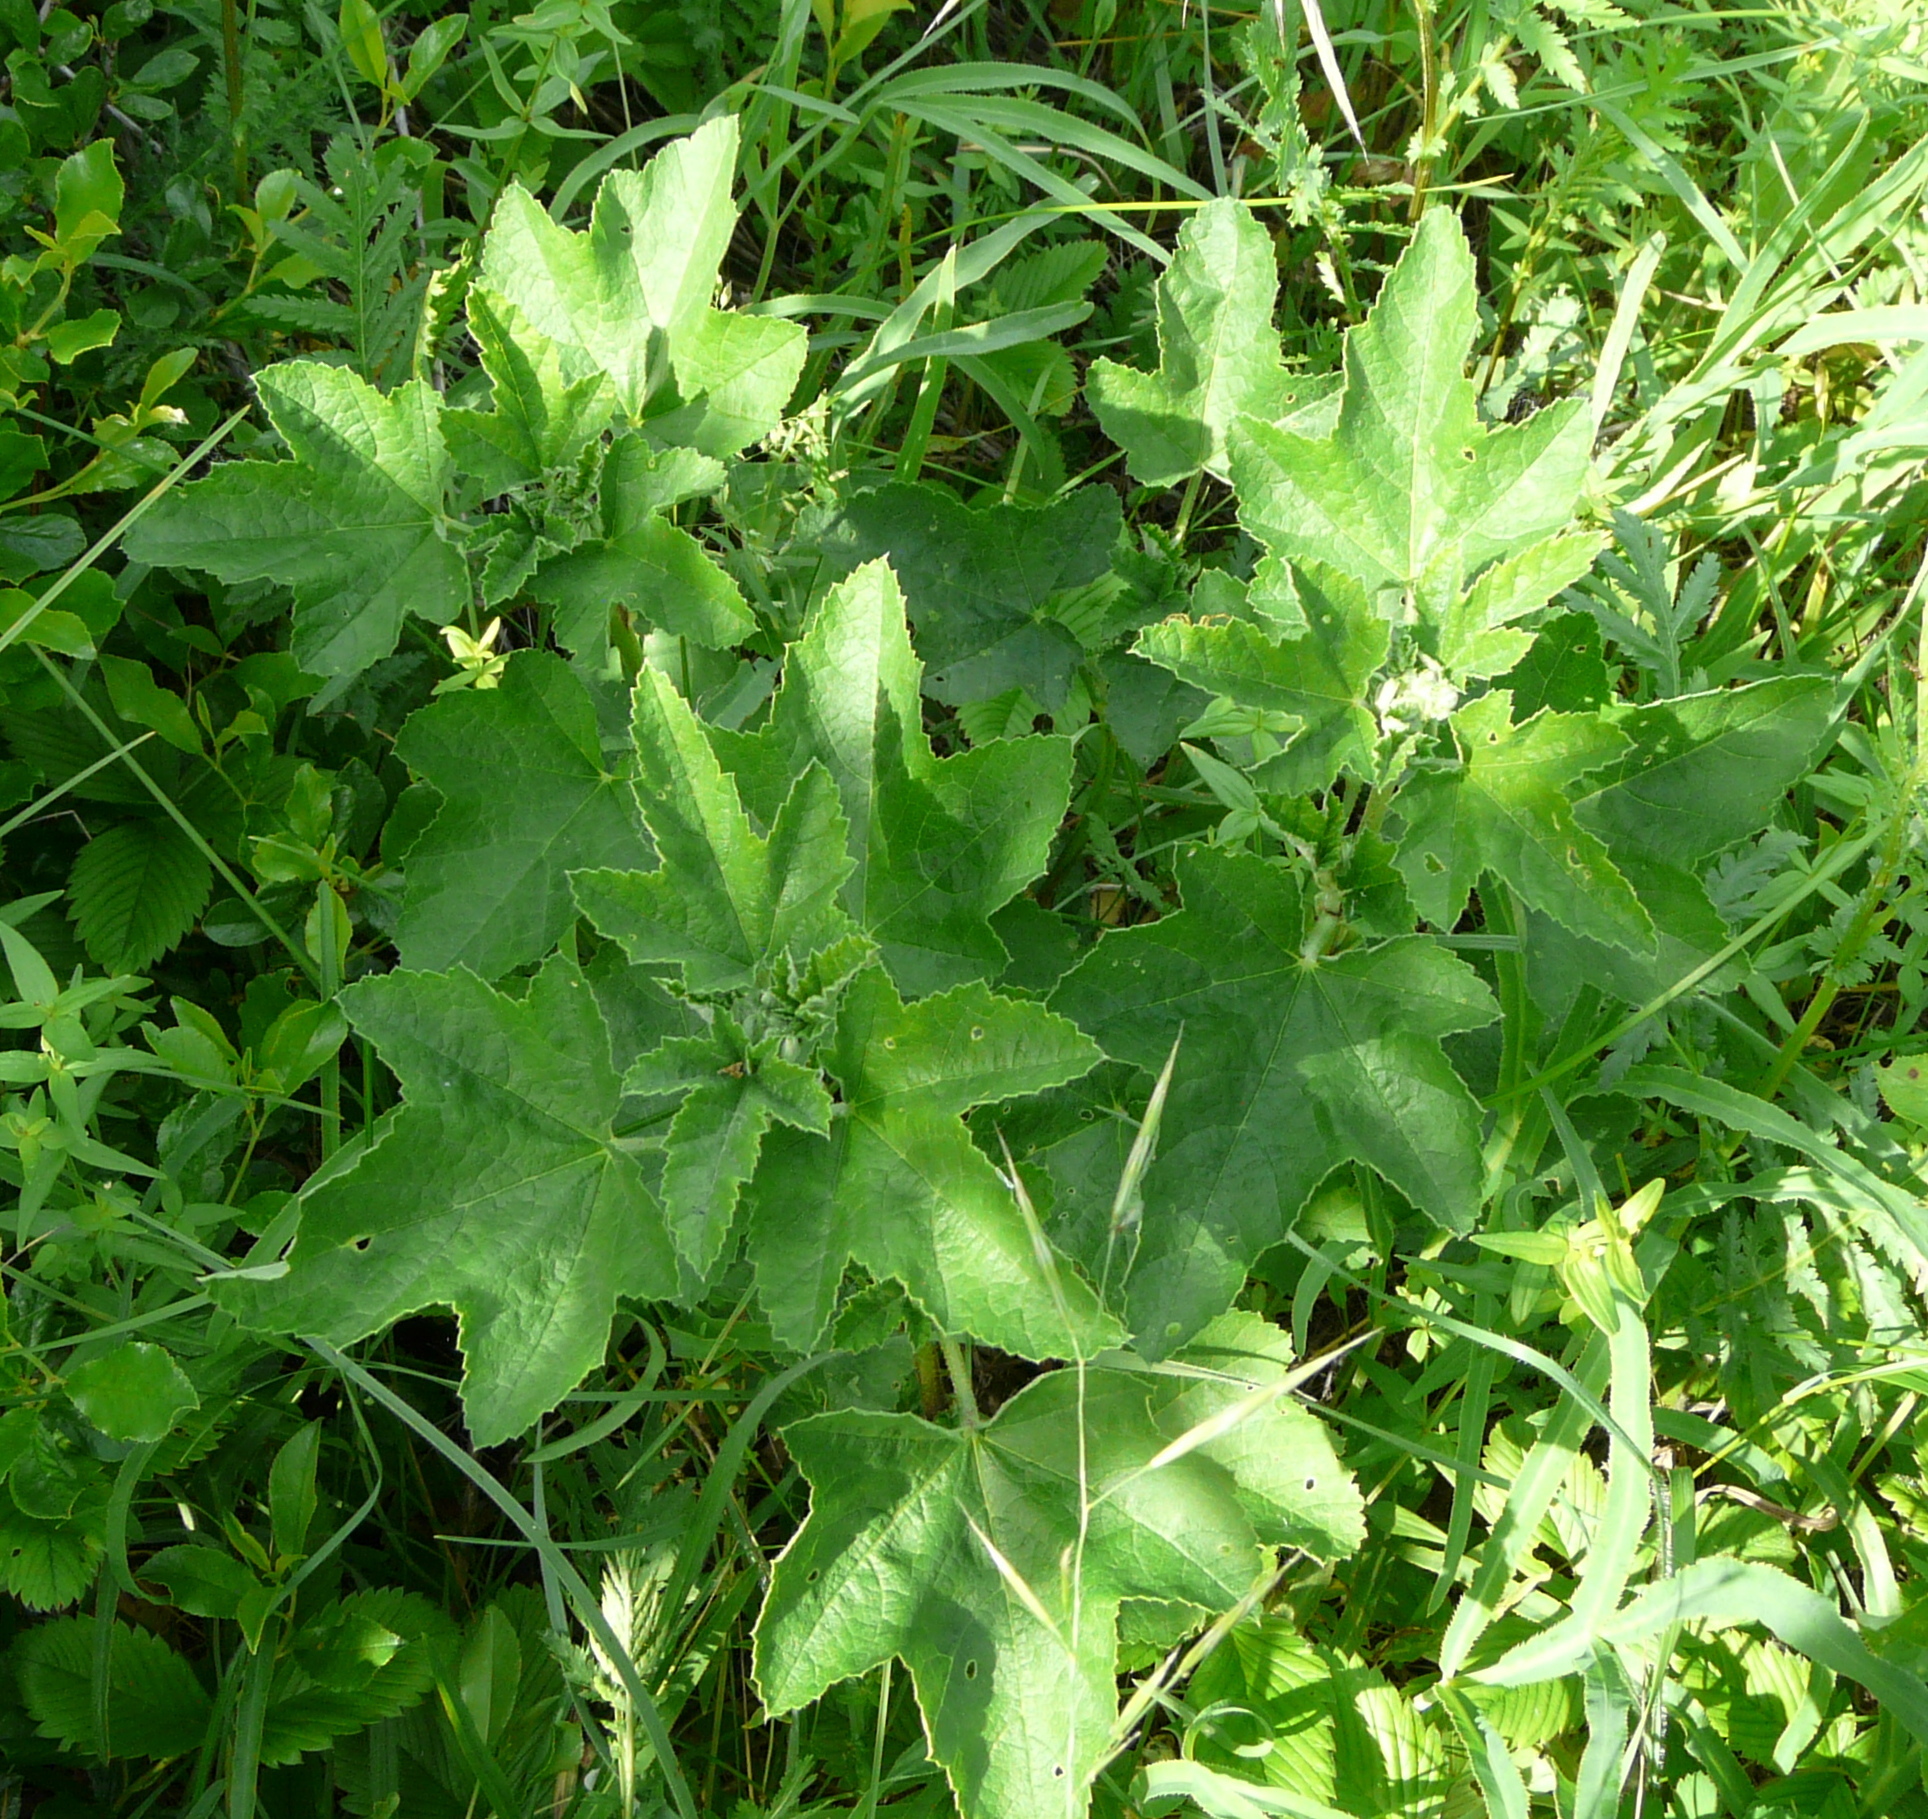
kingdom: Plantae
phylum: Tracheophyta
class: Magnoliopsida
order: Malvales
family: Malvaceae
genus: Malva
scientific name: Malva thuringiaca
